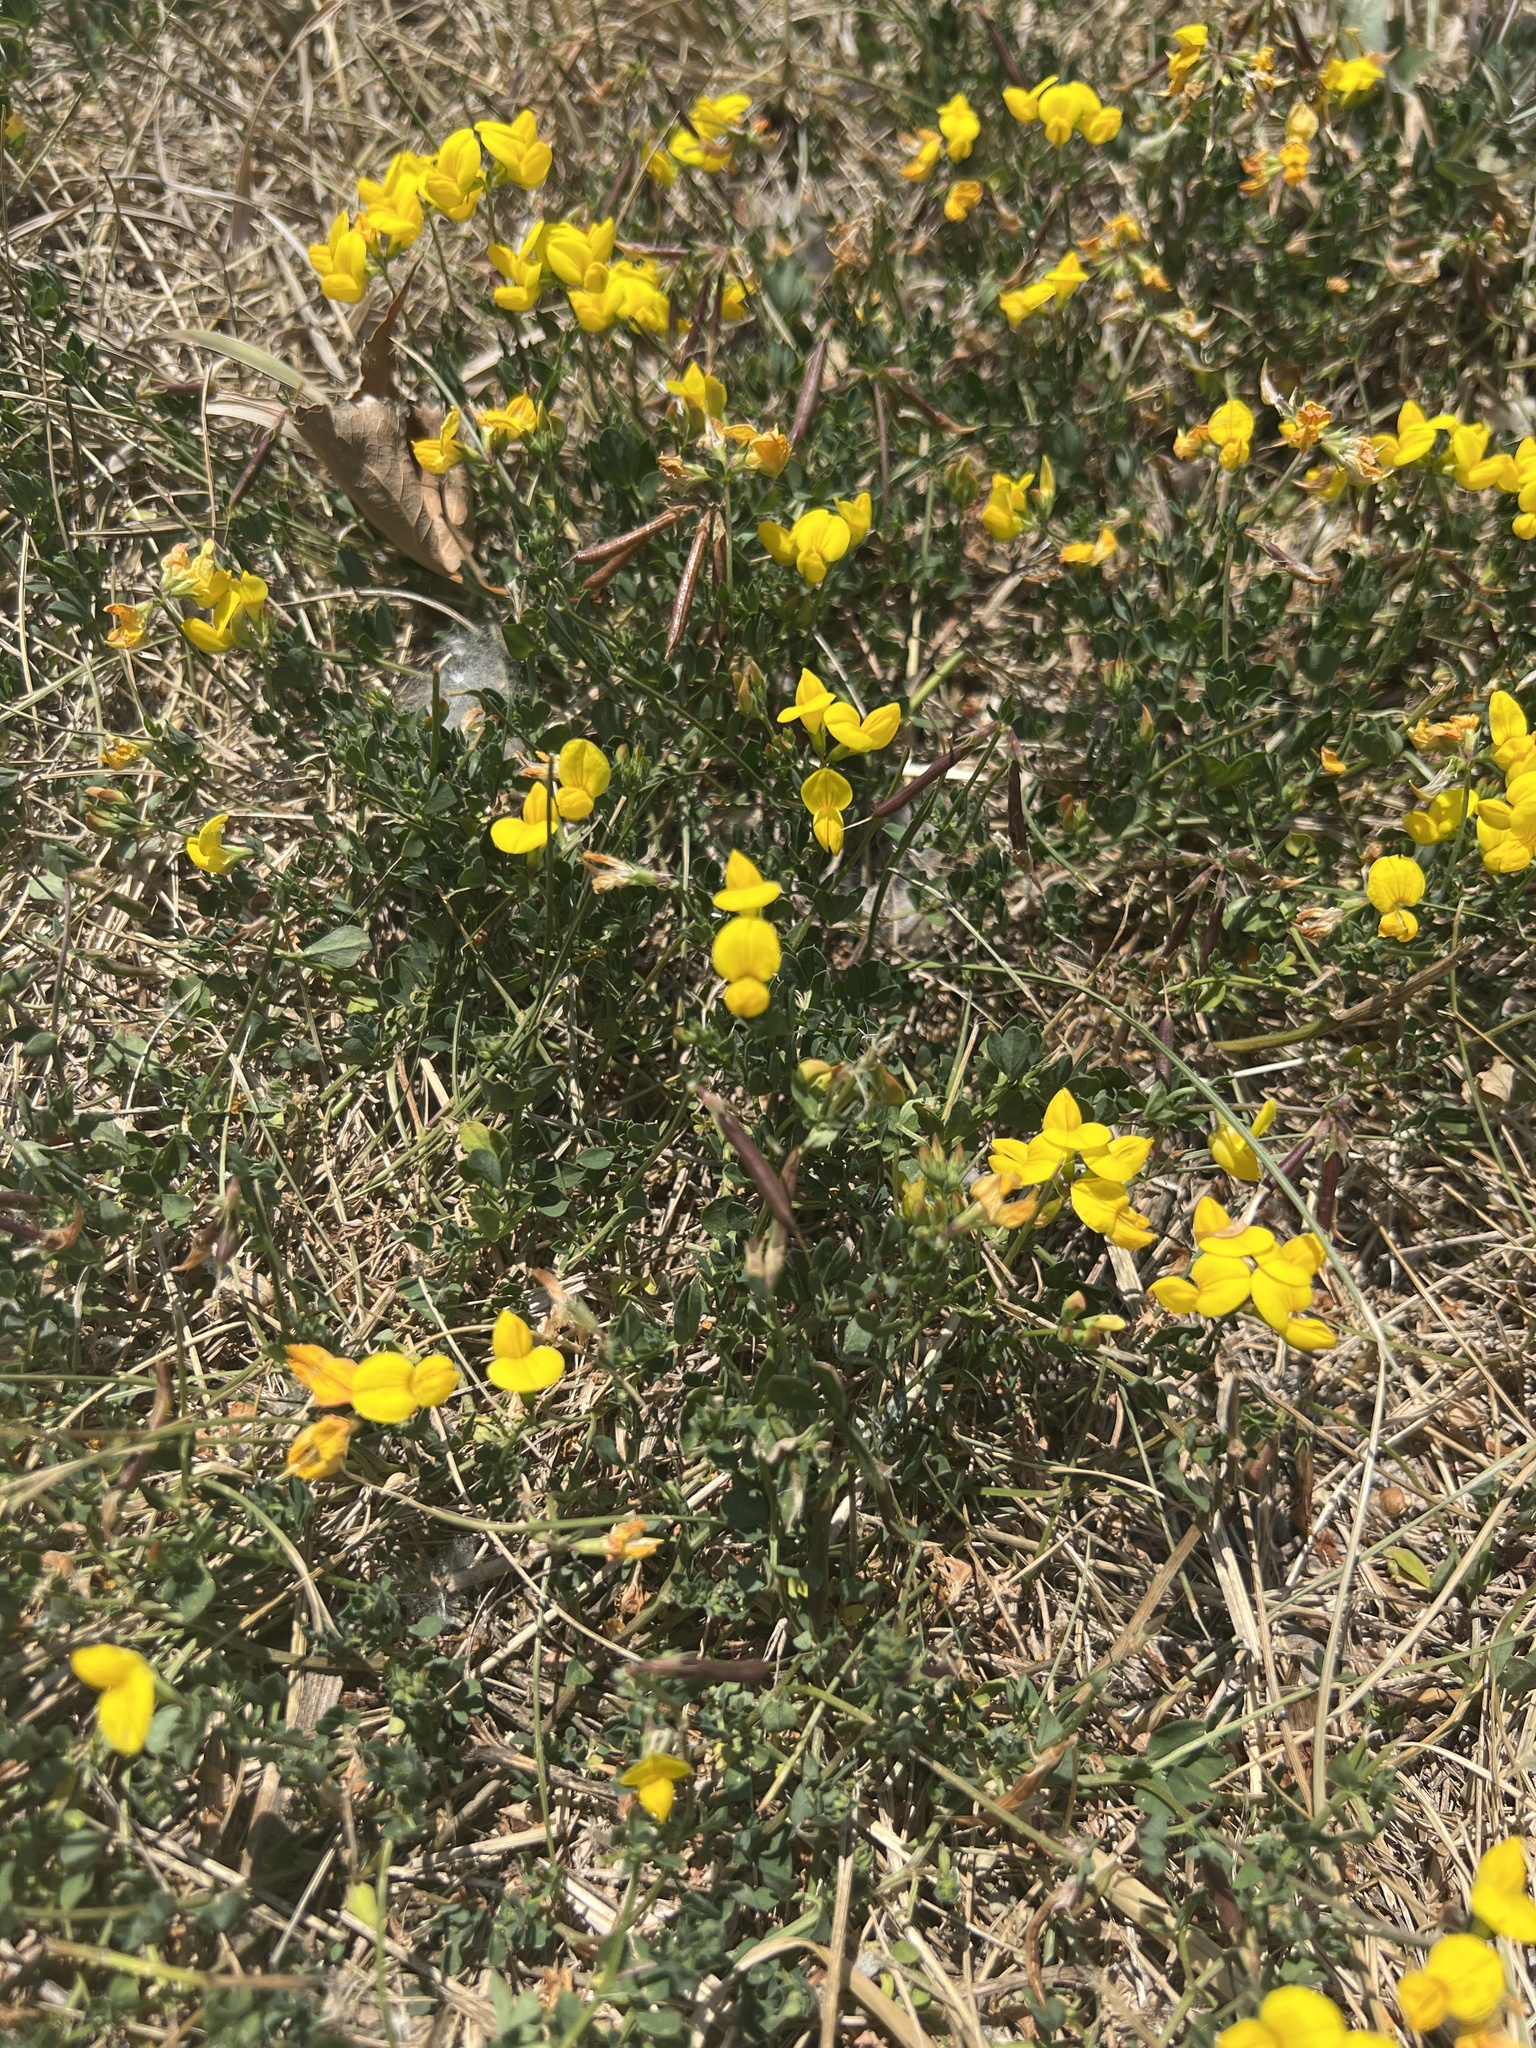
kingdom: Plantae
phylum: Tracheophyta
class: Magnoliopsida
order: Fabales
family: Fabaceae
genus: Lotus
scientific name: Lotus corniculatus
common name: Common bird's-foot-trefoil
